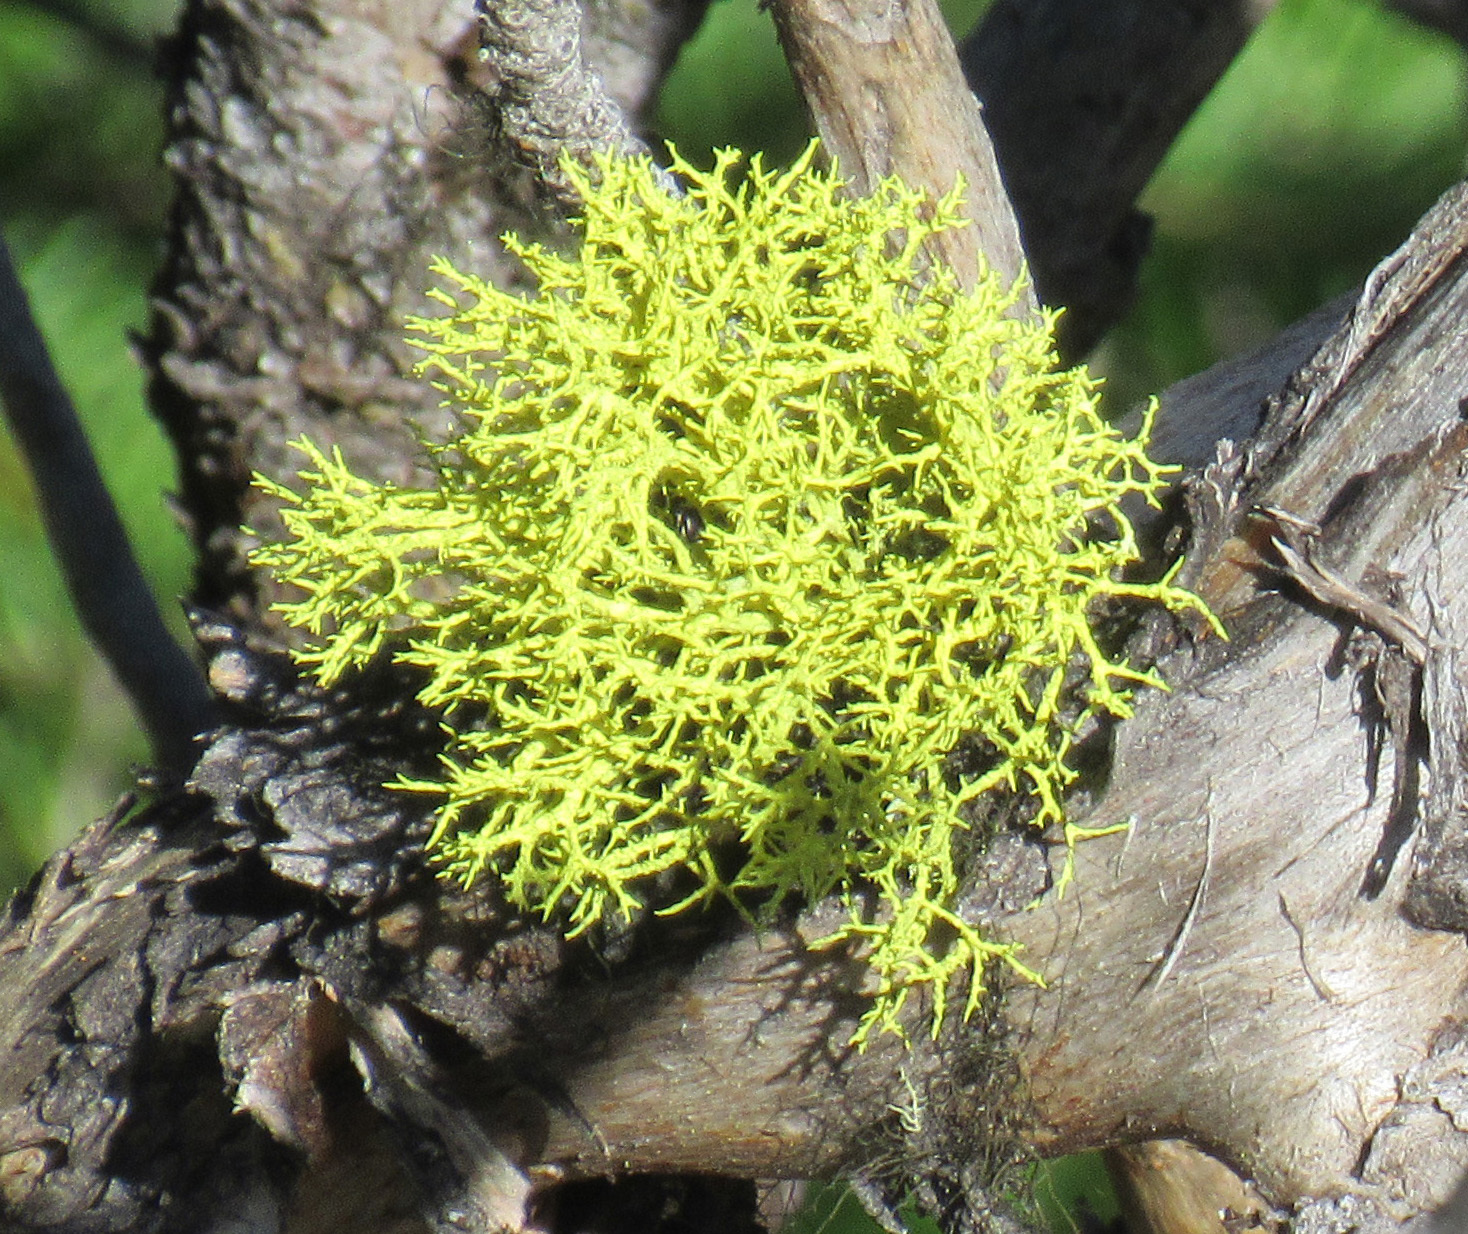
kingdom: Fungi
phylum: Ascomycota
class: Lecanoromycetes
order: Lecanorales
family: Parmeliaceae
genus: Letharia
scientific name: Letharia vulpina
